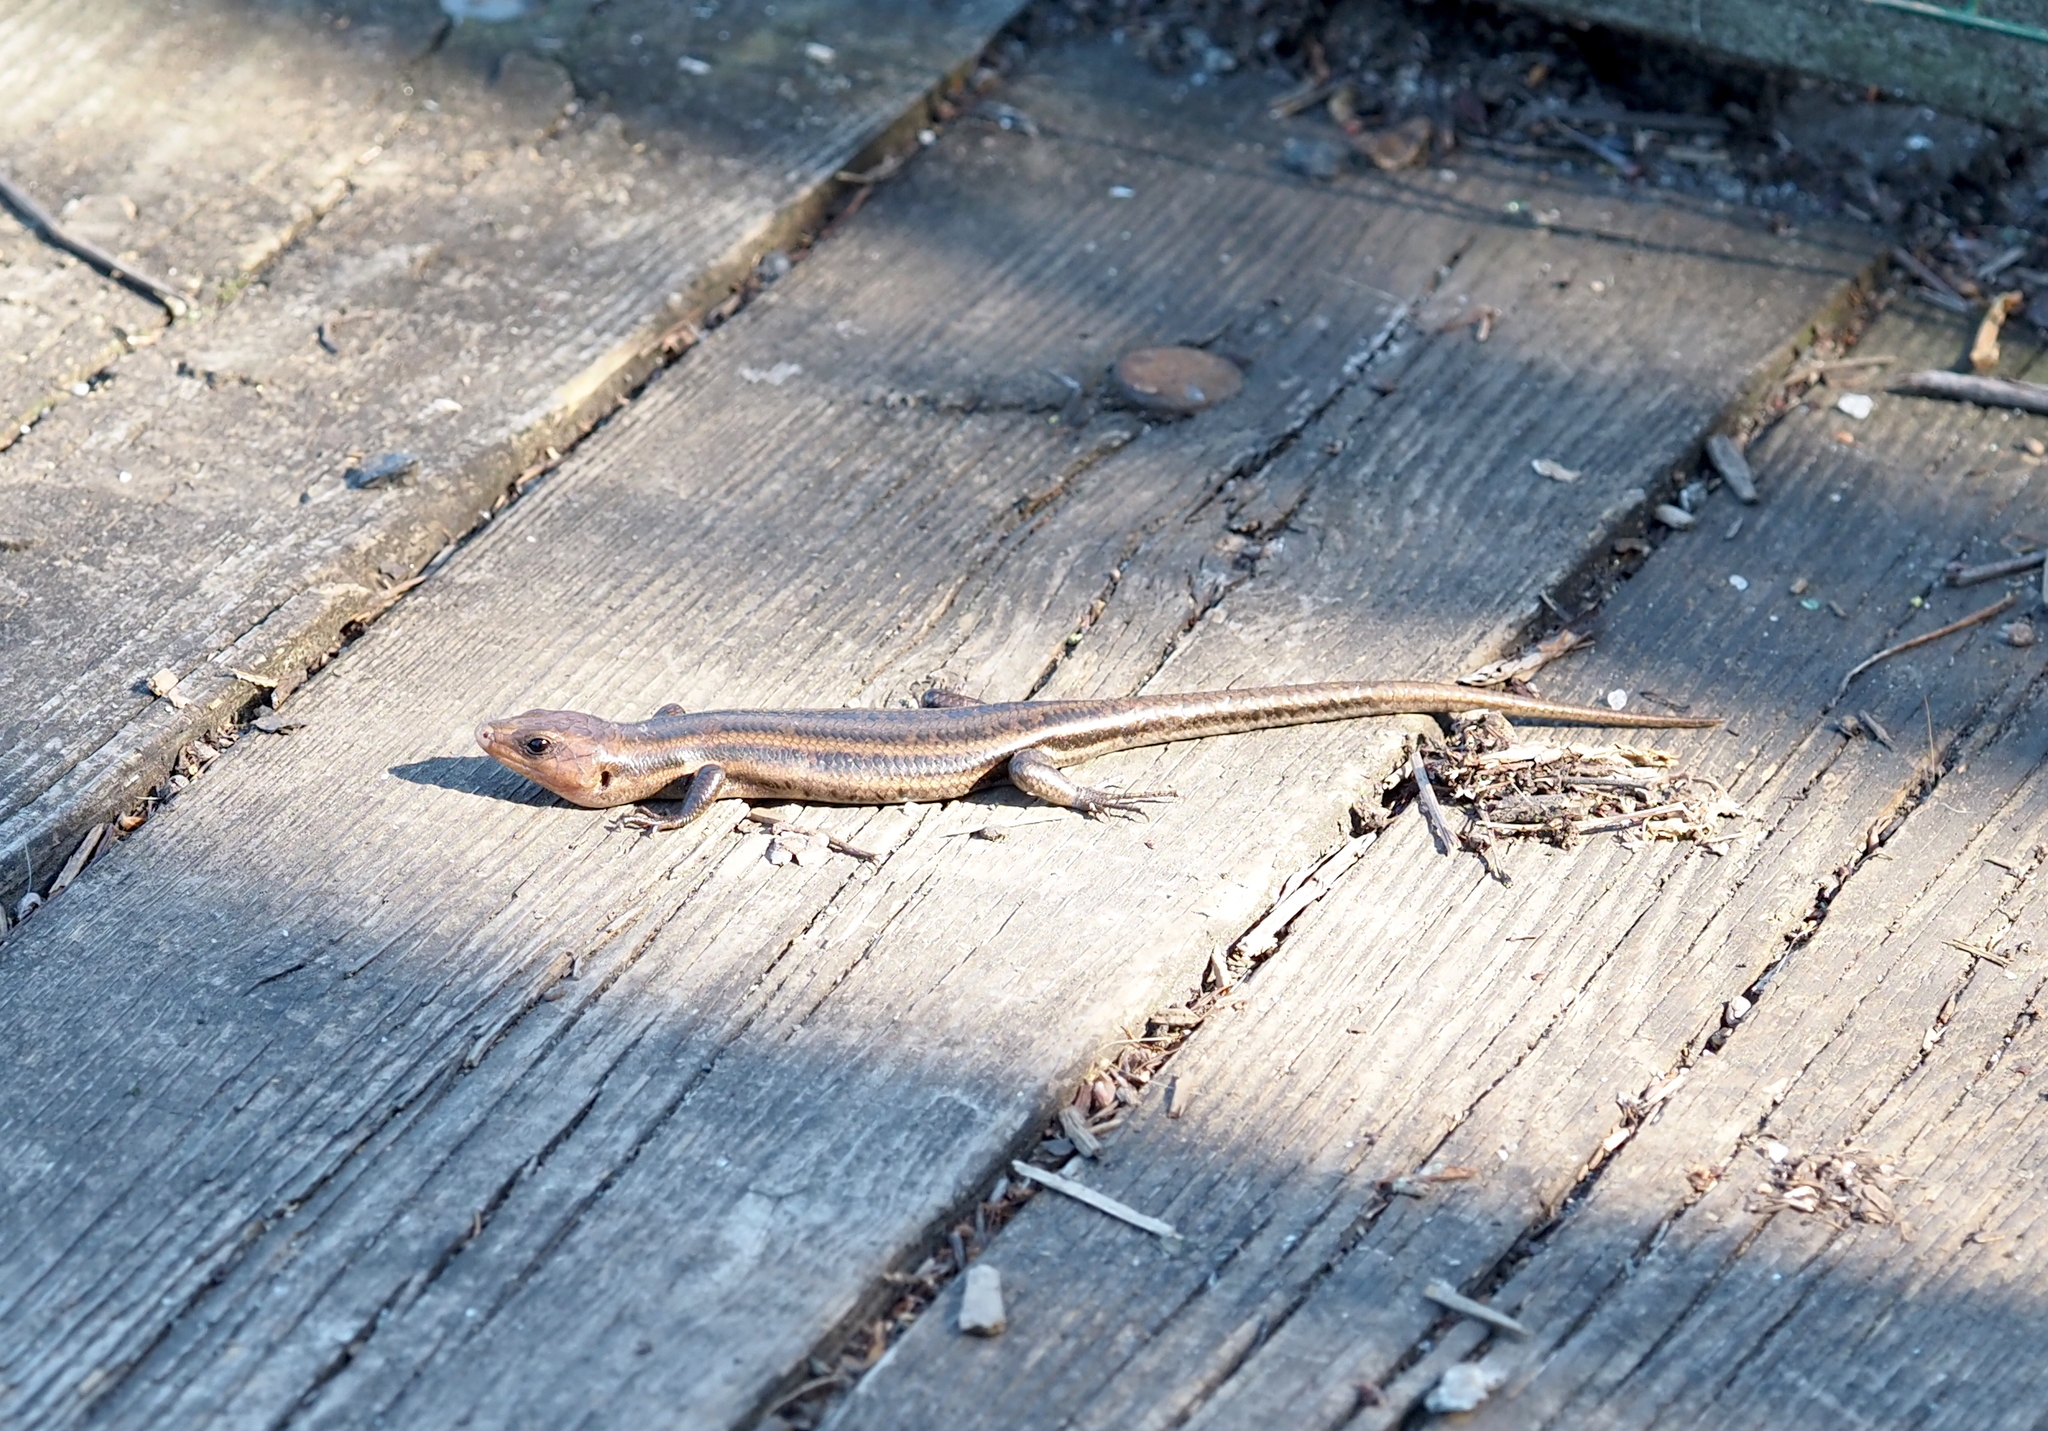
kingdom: Animalia
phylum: Chordata
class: Squamata
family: Scincidae
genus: Plestiodon
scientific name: Plestiodon fasciatus
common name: Five-lined skink
